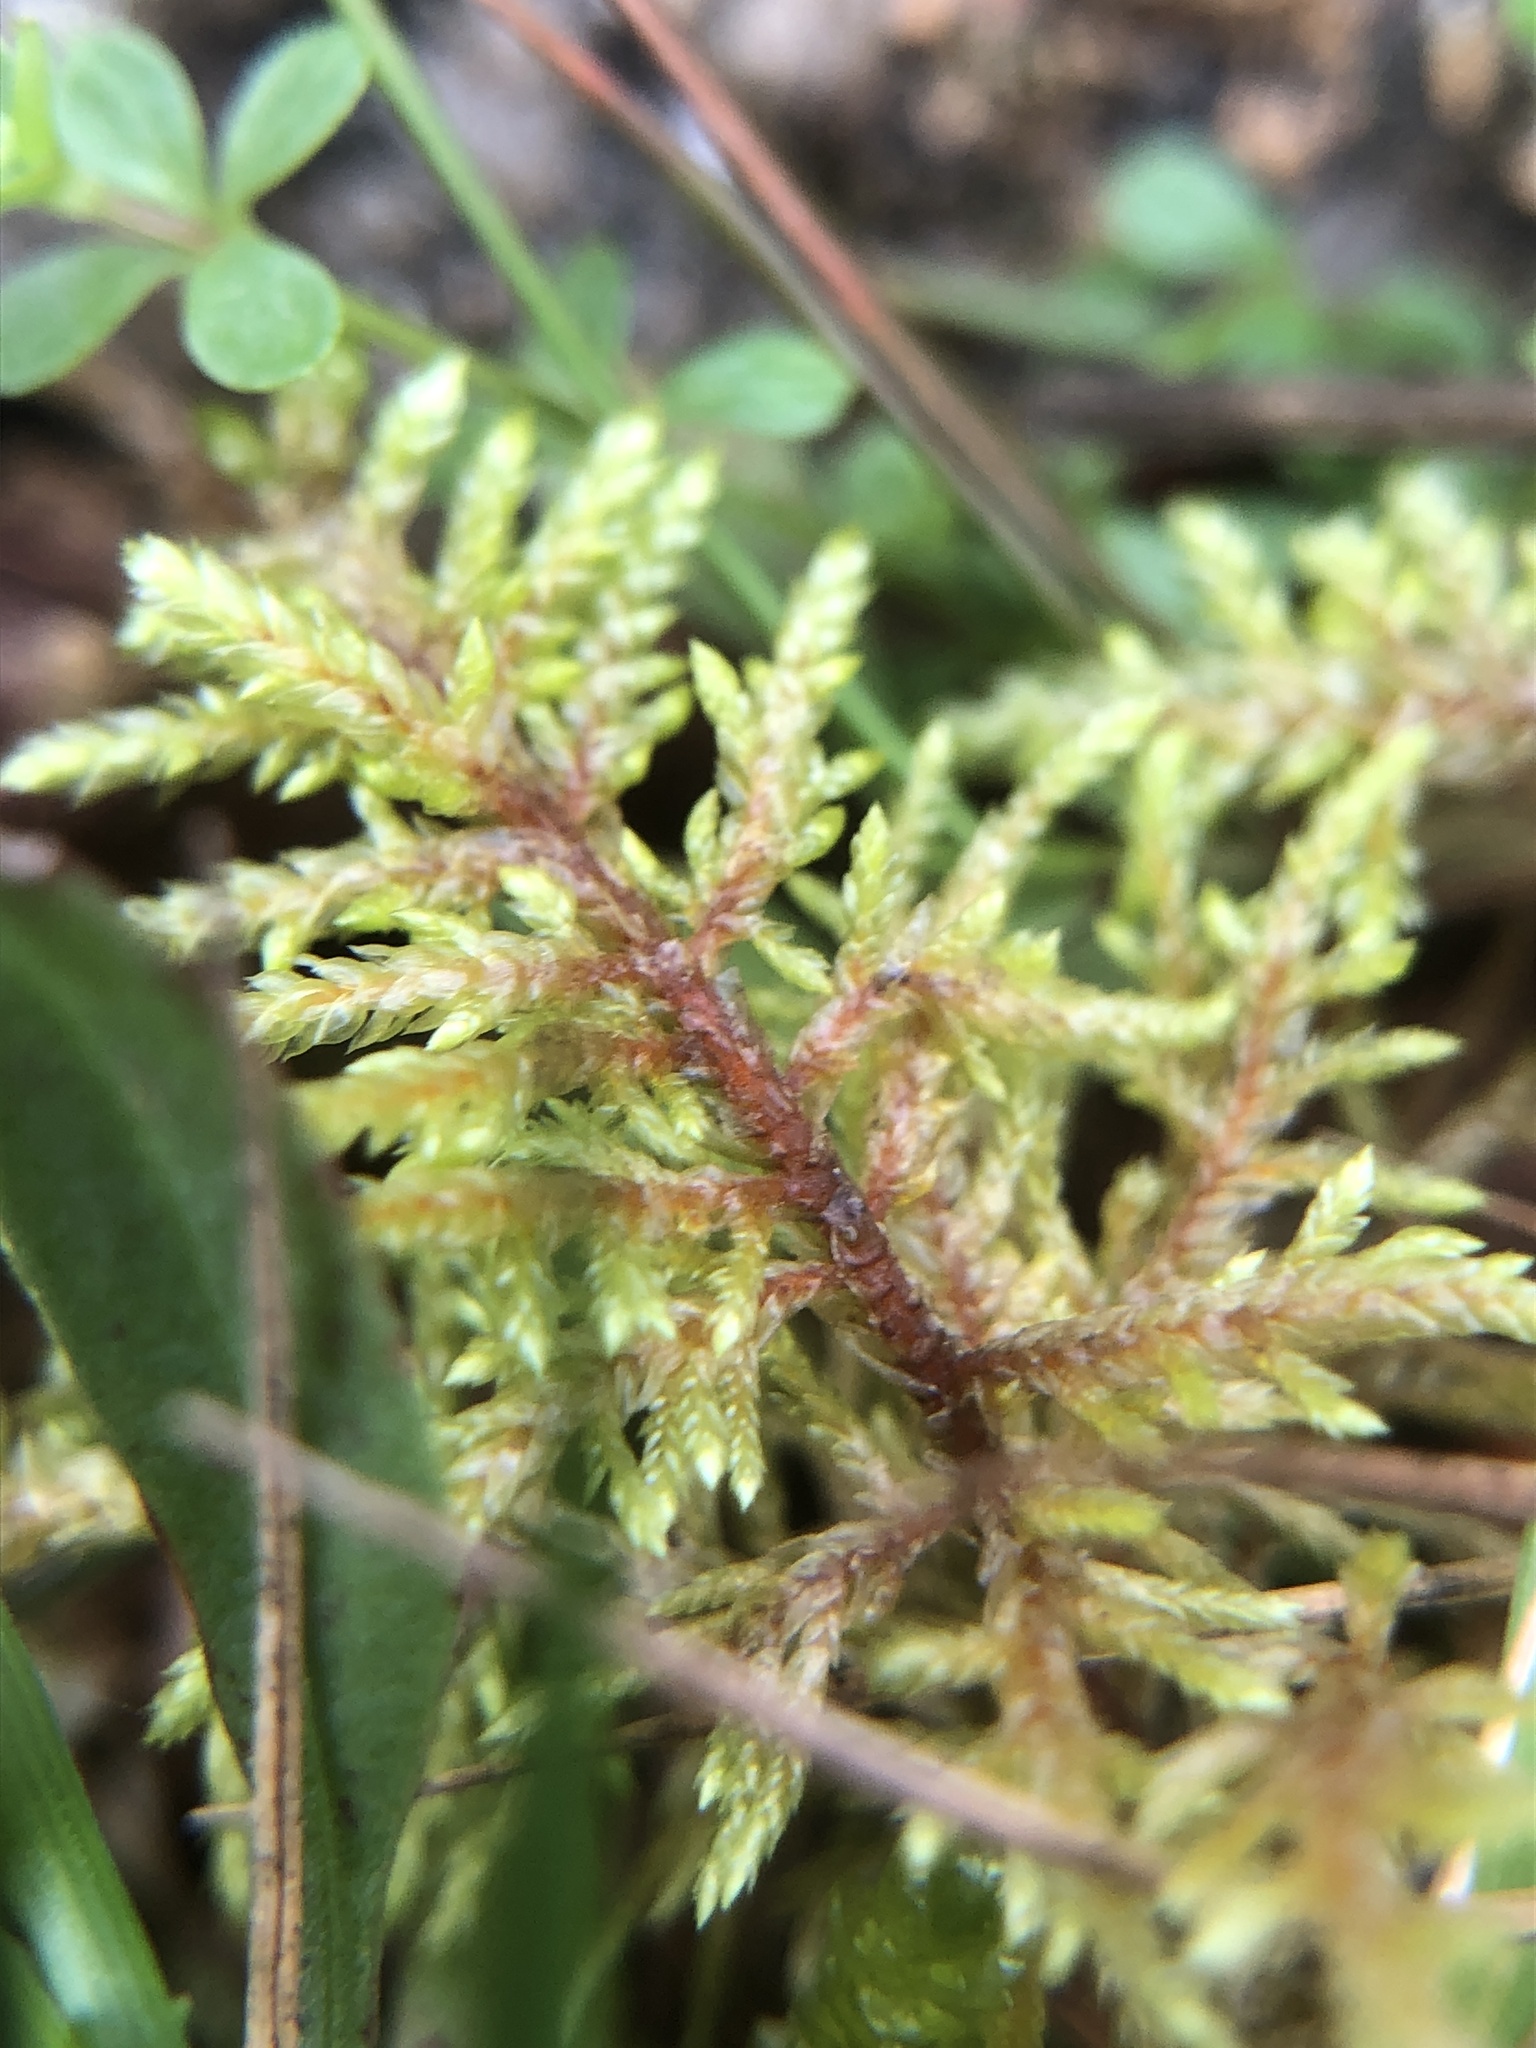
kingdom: Plantae
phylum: Bryophyta
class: Bryopsida
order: Hypnales
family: Hylocomiaceae
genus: Hylocomium
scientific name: Hylocomium splendens
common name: Stairstep moss
